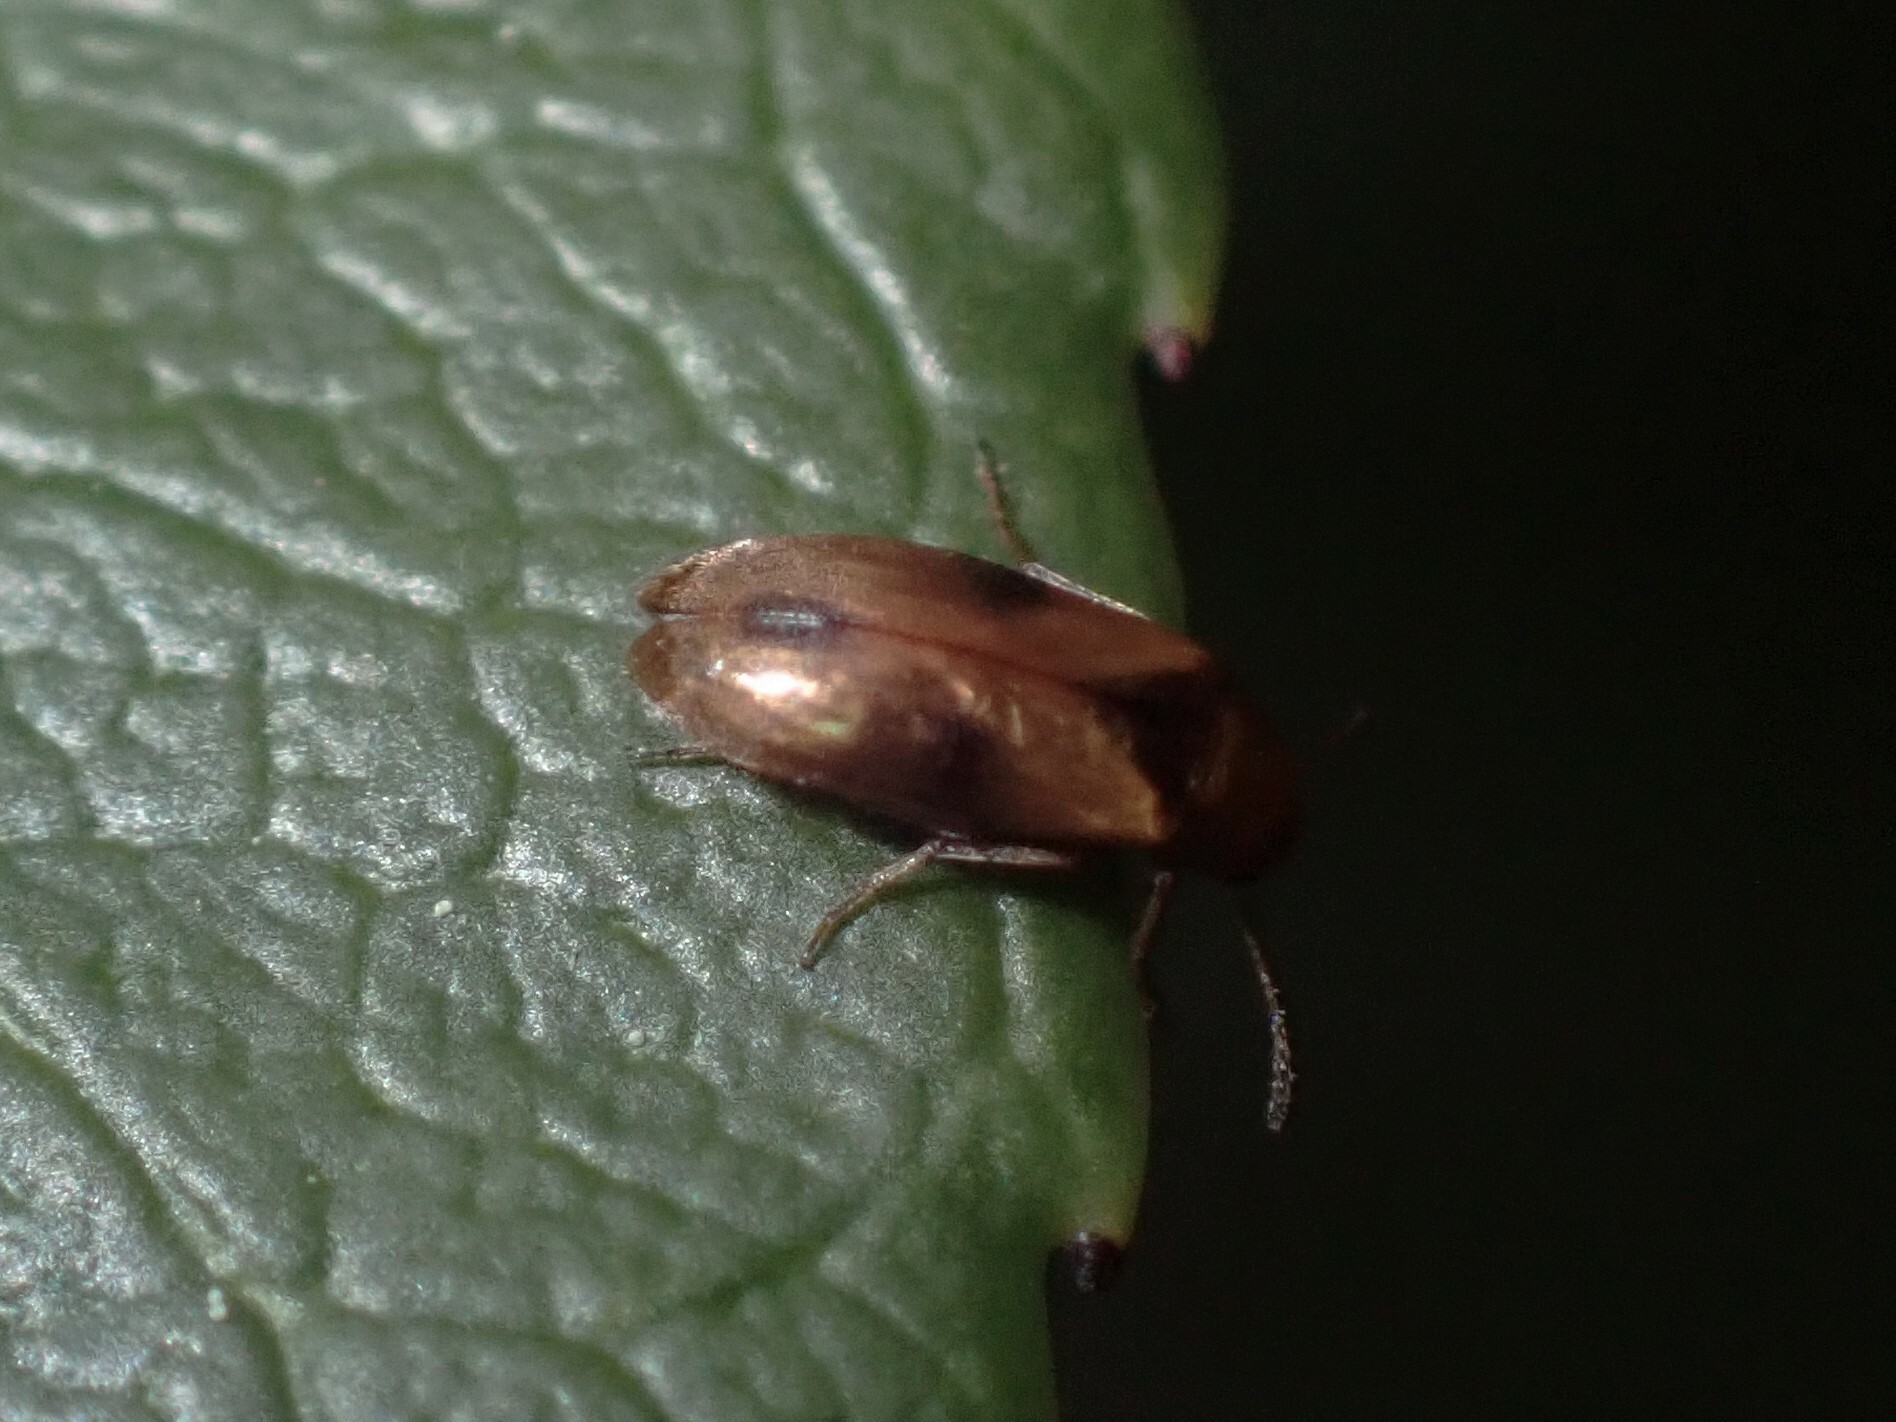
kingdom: Animalia
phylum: Arthropoda
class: Insecta
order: Coleoptera
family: Scraptiidae
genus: Anaspis
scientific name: Anaspis maculata
